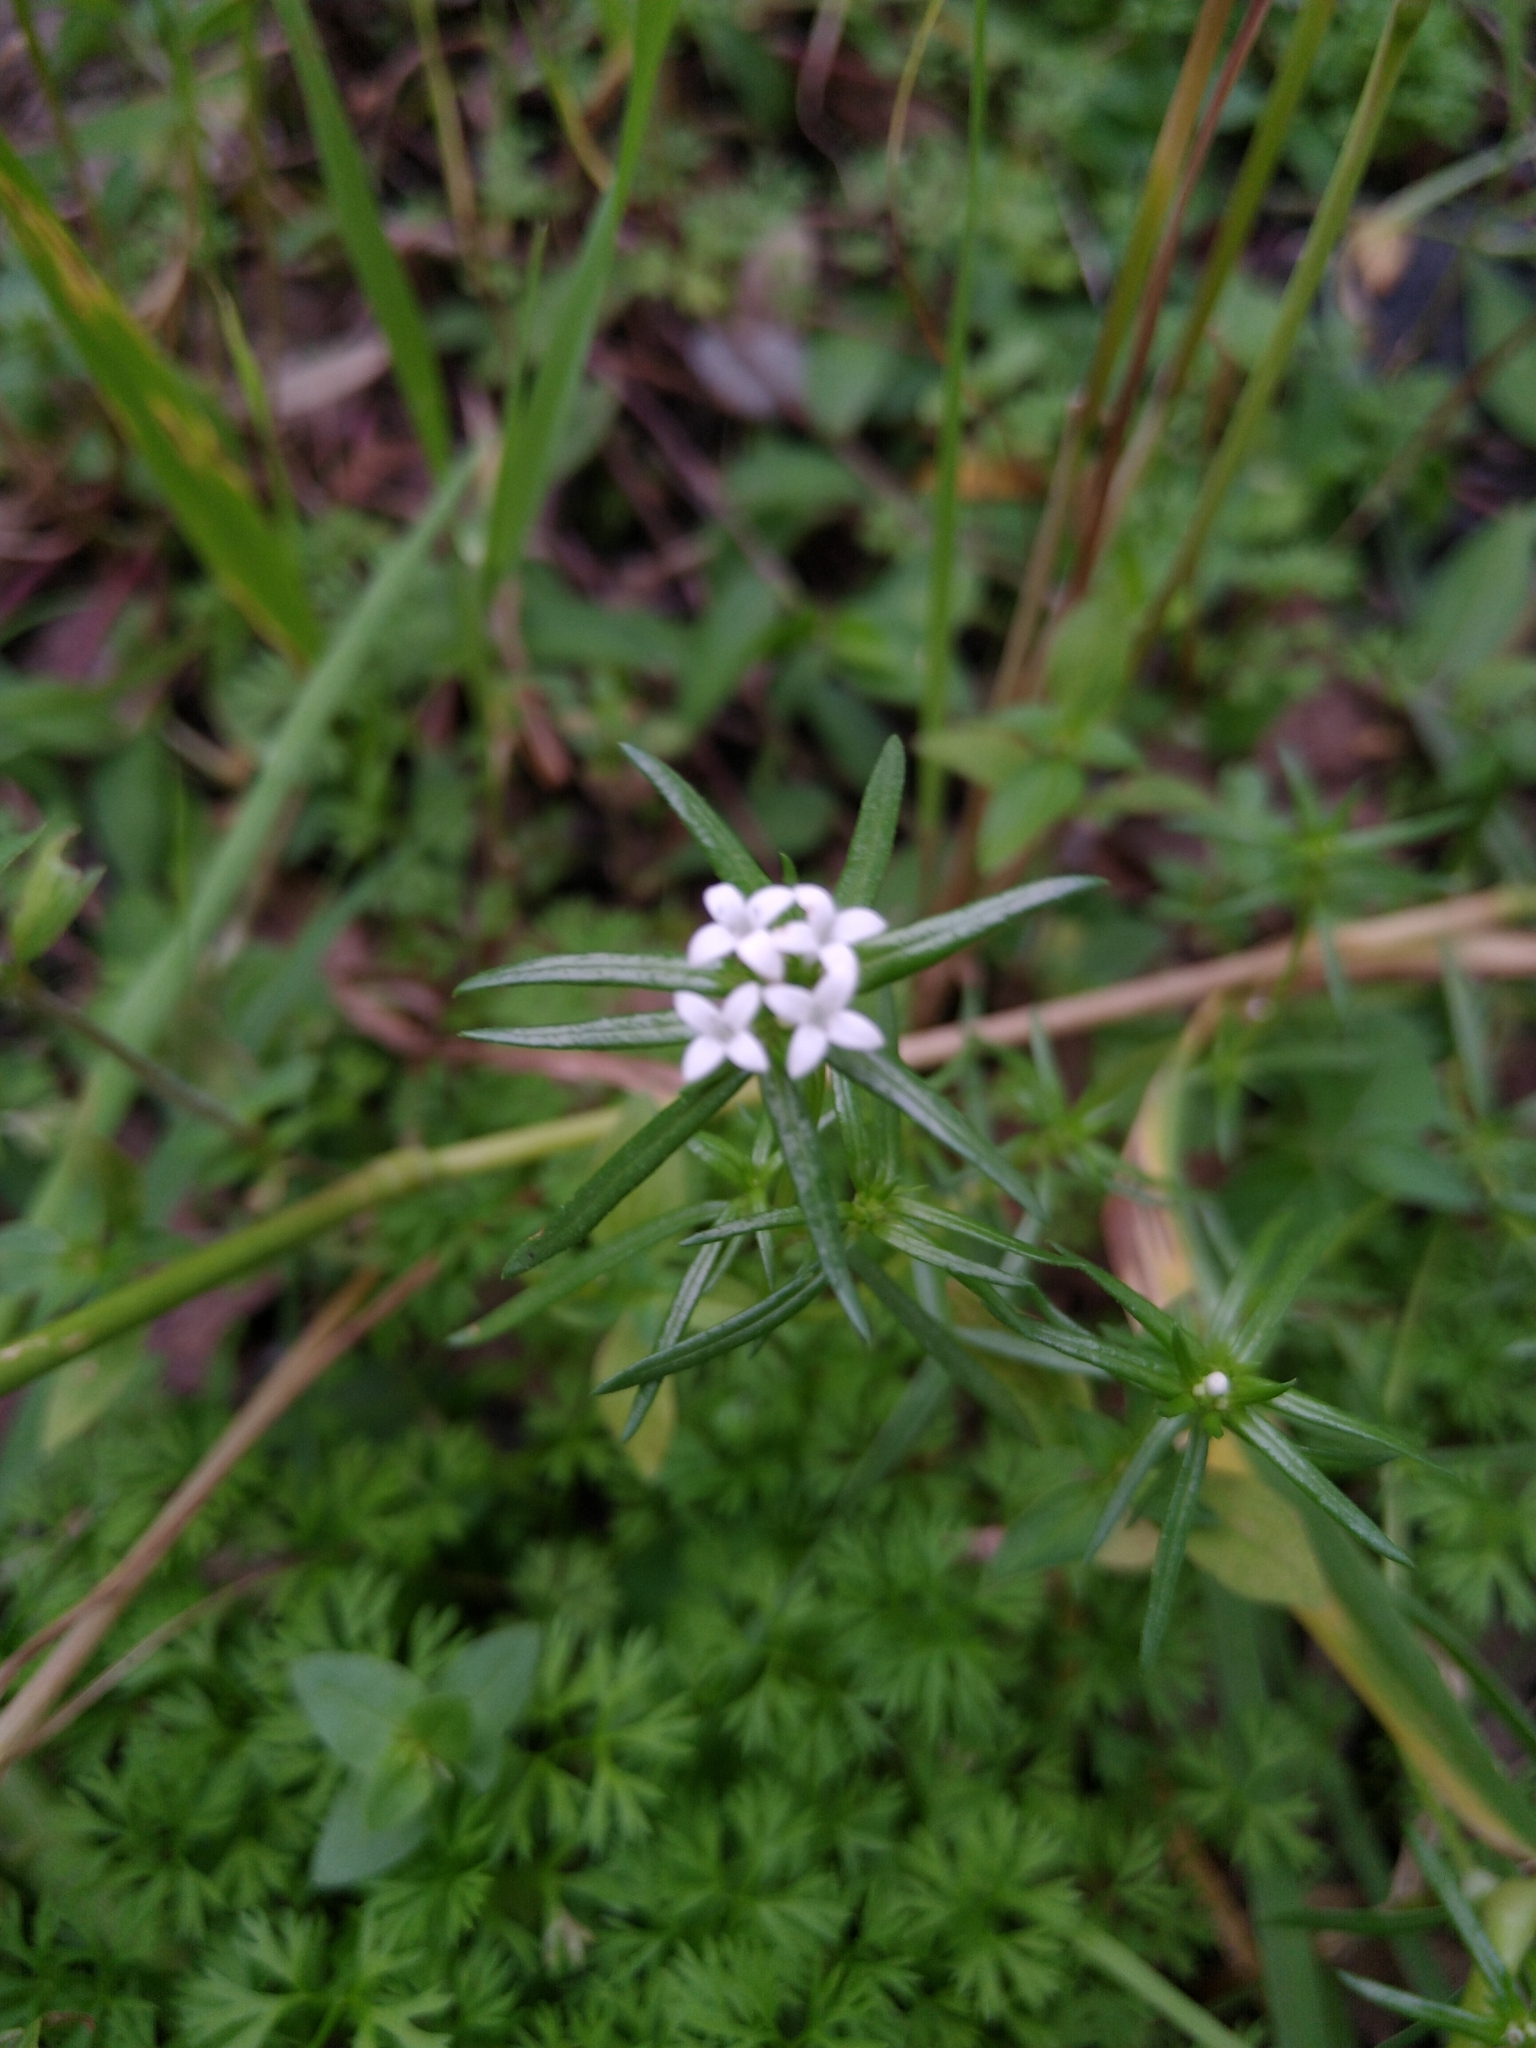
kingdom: Plantae
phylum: Tracheophyta
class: Magnoliopsida
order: Gentianales
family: Rubiaceae
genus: Sherardia
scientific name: Sherardia arvensis
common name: Field madder
